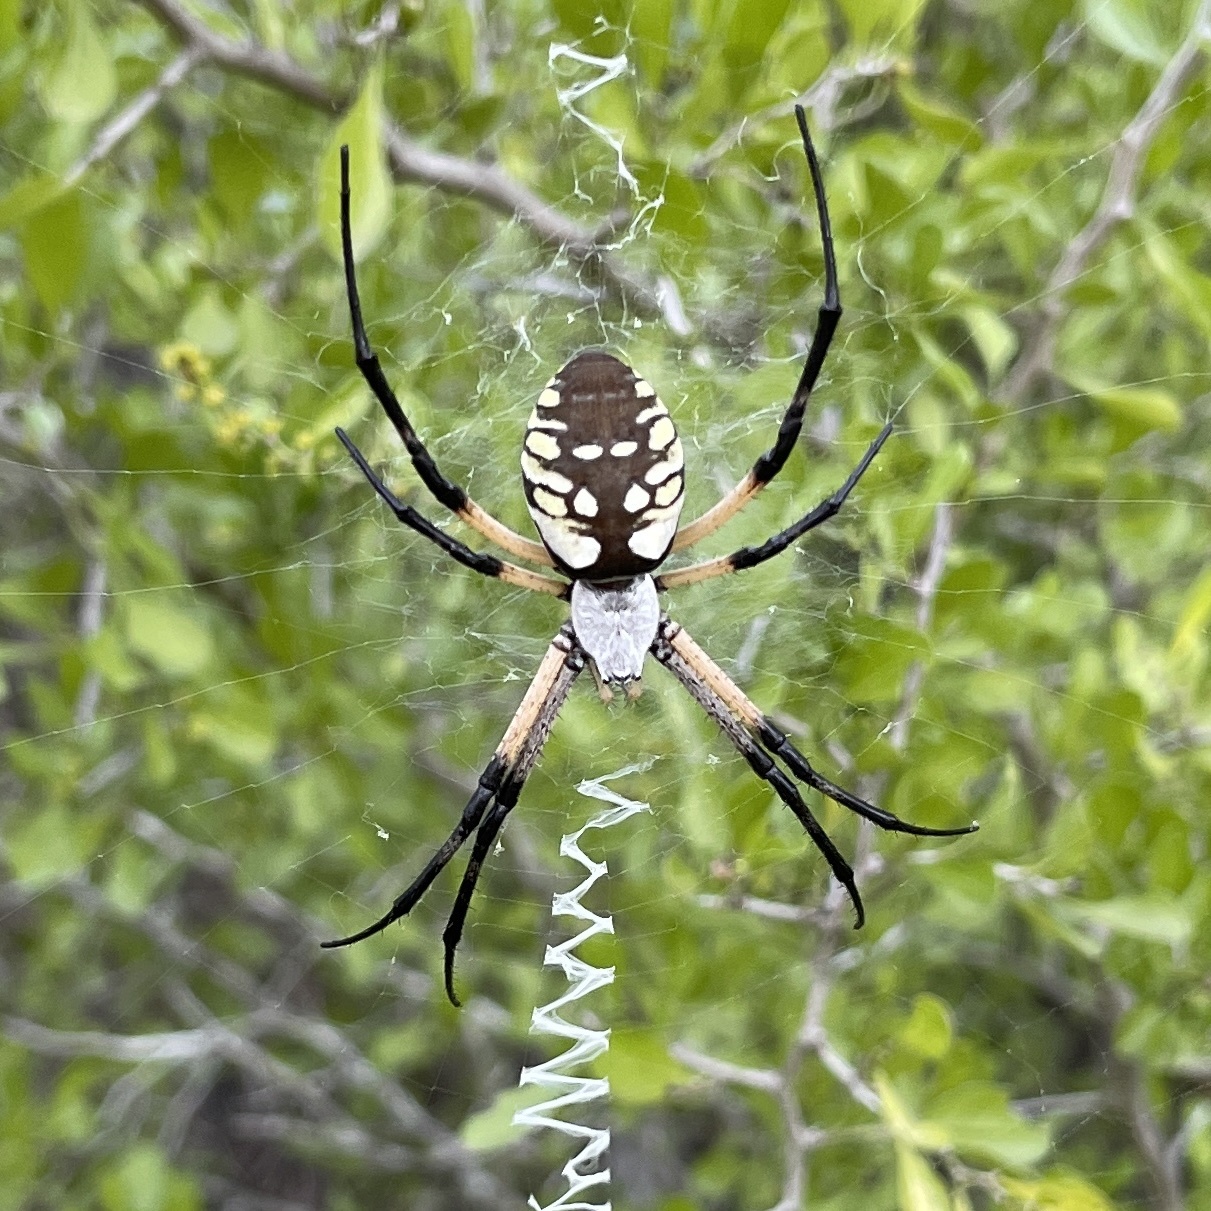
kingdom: Animalia
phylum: Arthropoda
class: Arachnida
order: Araneae
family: Araneidae
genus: Argiope
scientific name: Argiope aurantia
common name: Orb weavers
